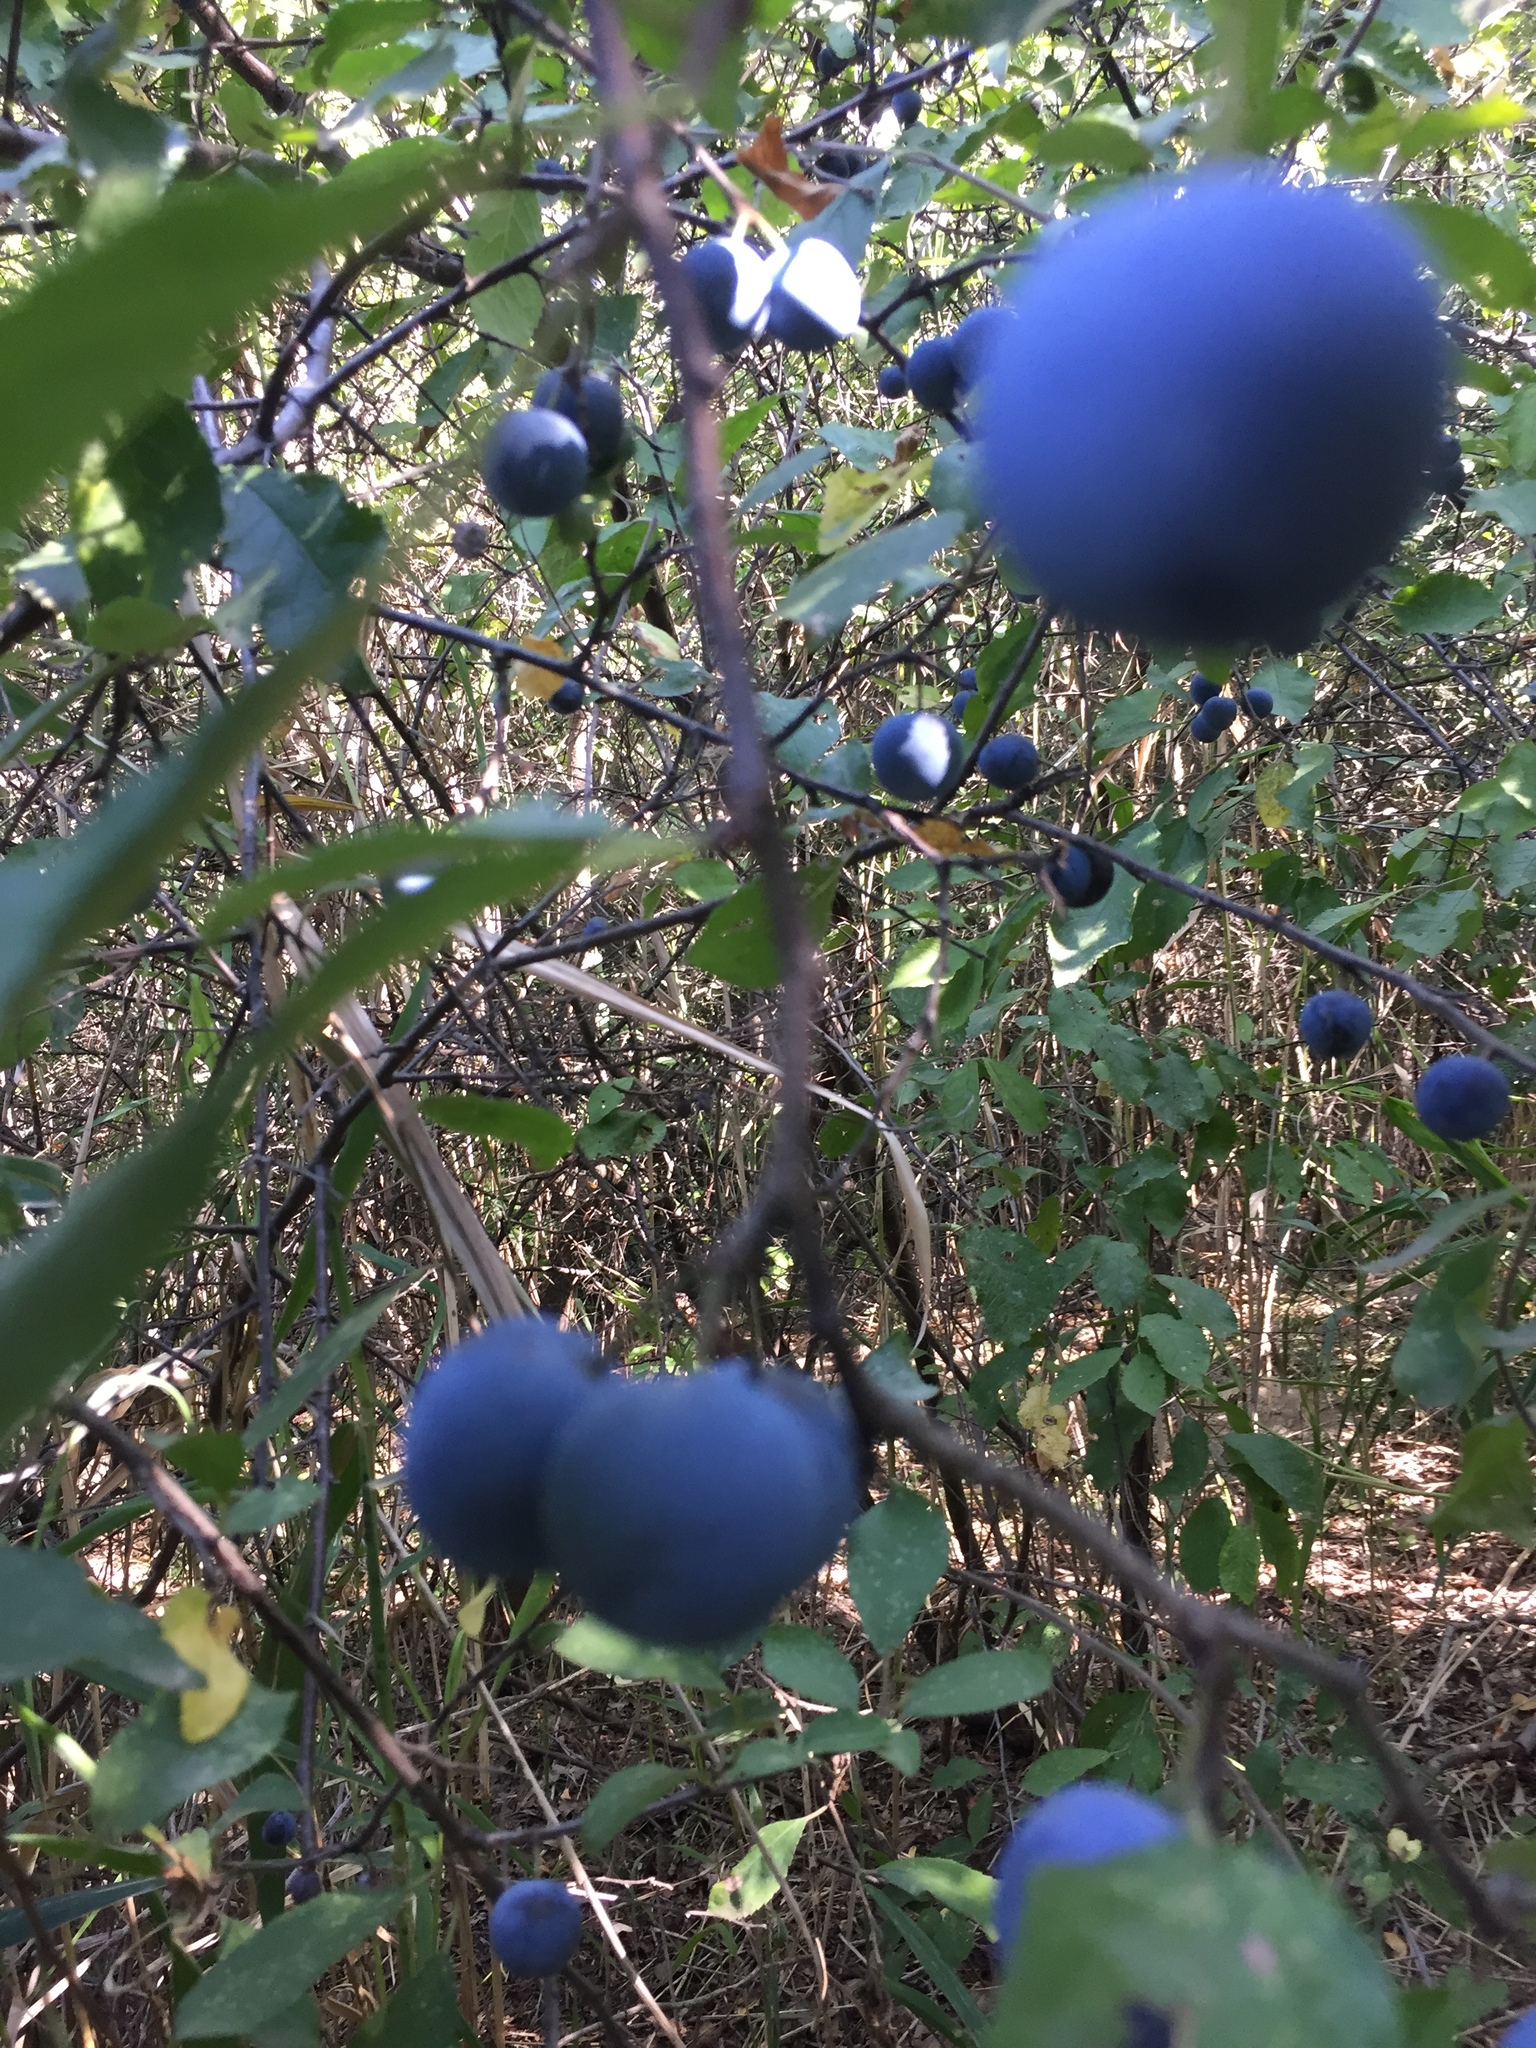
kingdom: Plantae
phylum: Tracheophyta
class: Magnoliopsida
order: Rosales
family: Rosaceae
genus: Prunus
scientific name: Prunus spinosa
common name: Blackthorn
